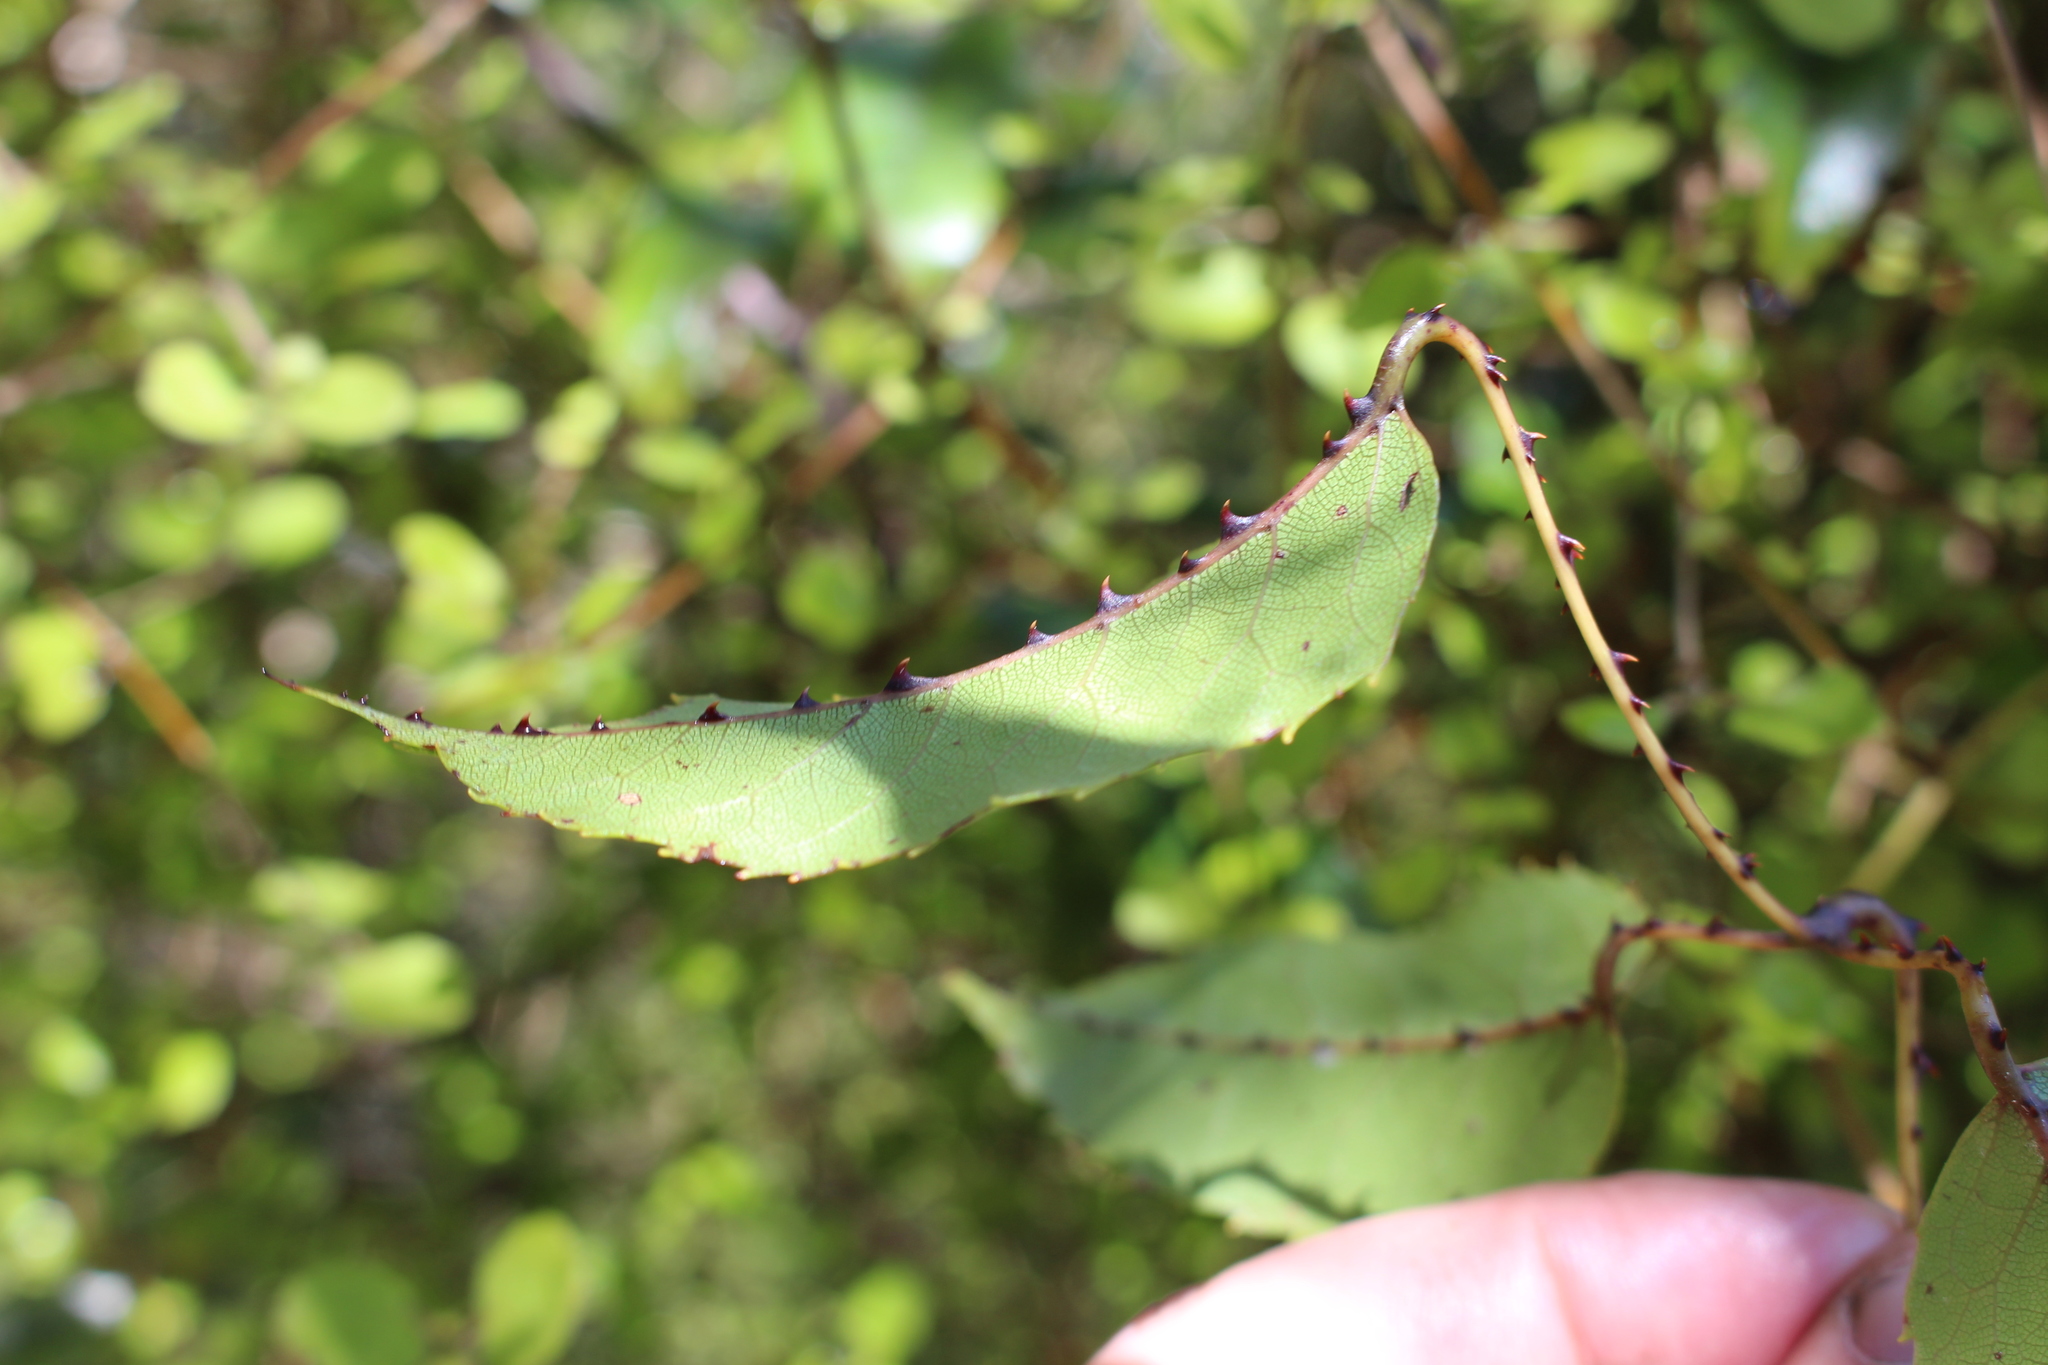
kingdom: Plantae
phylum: Tracheophyta
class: Magnoliopsida
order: Rosales
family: Rosaceae
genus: Rubus
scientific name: Rubus cissoides
